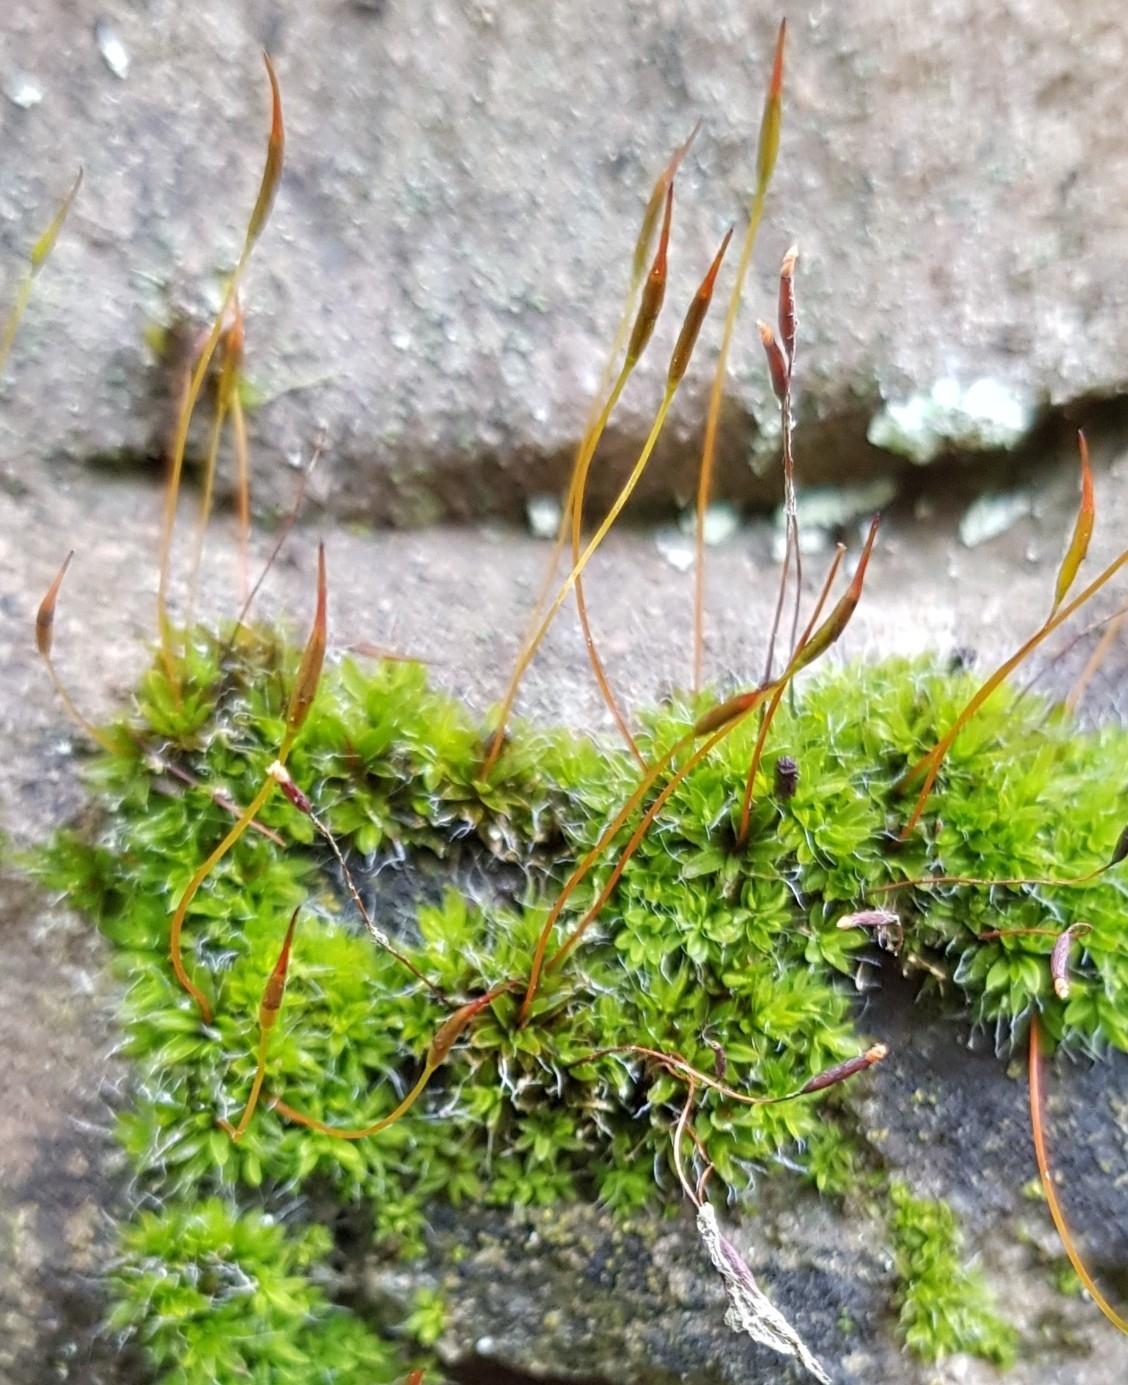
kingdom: Plantae
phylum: Bryophyta
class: Bryopsida
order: Pottiales
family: Pottiaceae
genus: Tortula
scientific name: Tortula muralis
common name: Wall screw-moss
